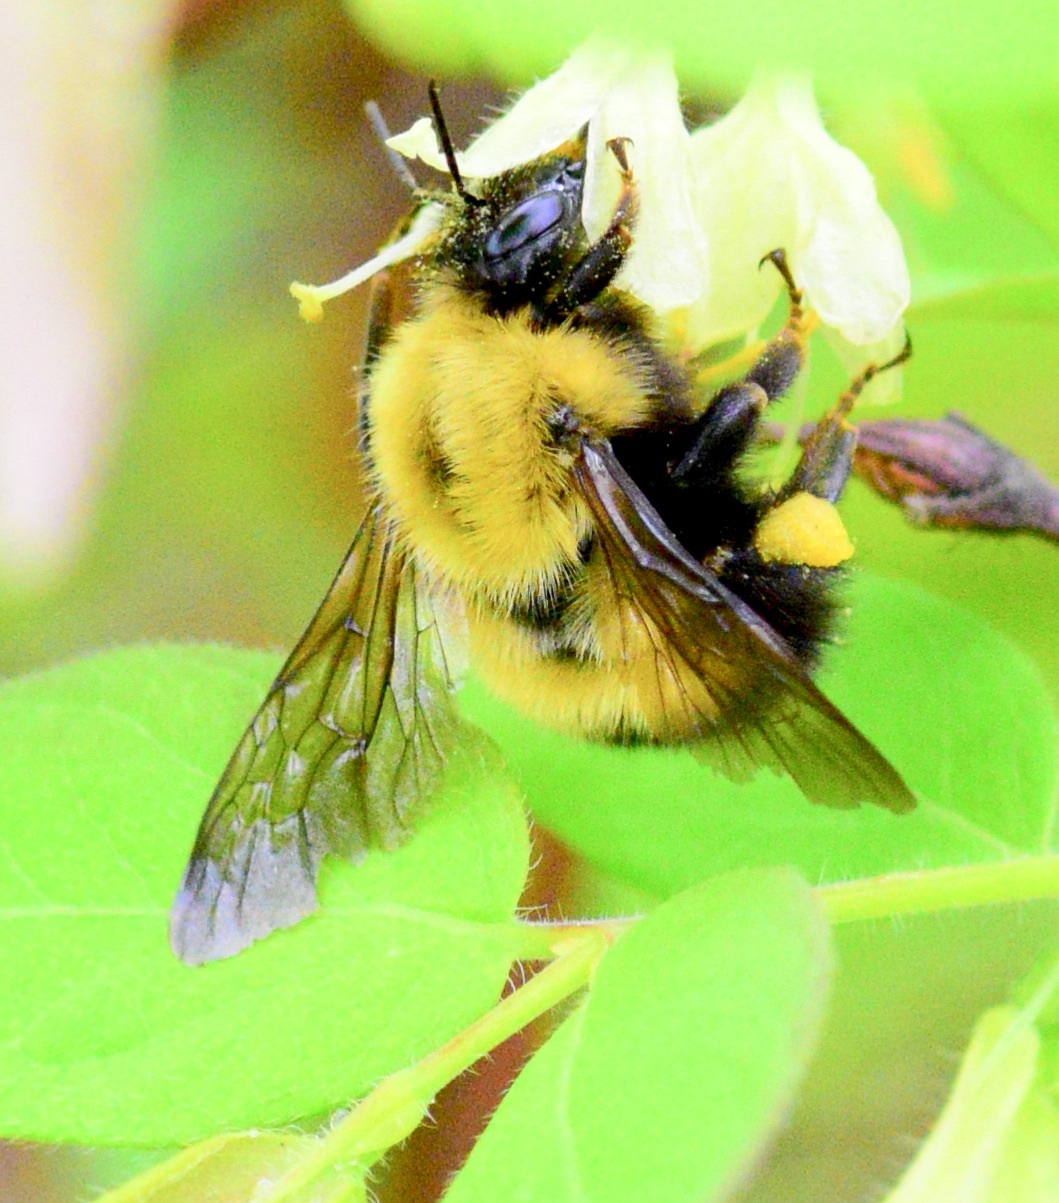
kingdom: Animalia
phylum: Arthropoda
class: Insecta
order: Hymenoptera
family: Apidae
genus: Bombus
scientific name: Bombus perplexus
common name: Confusing bumble bee
